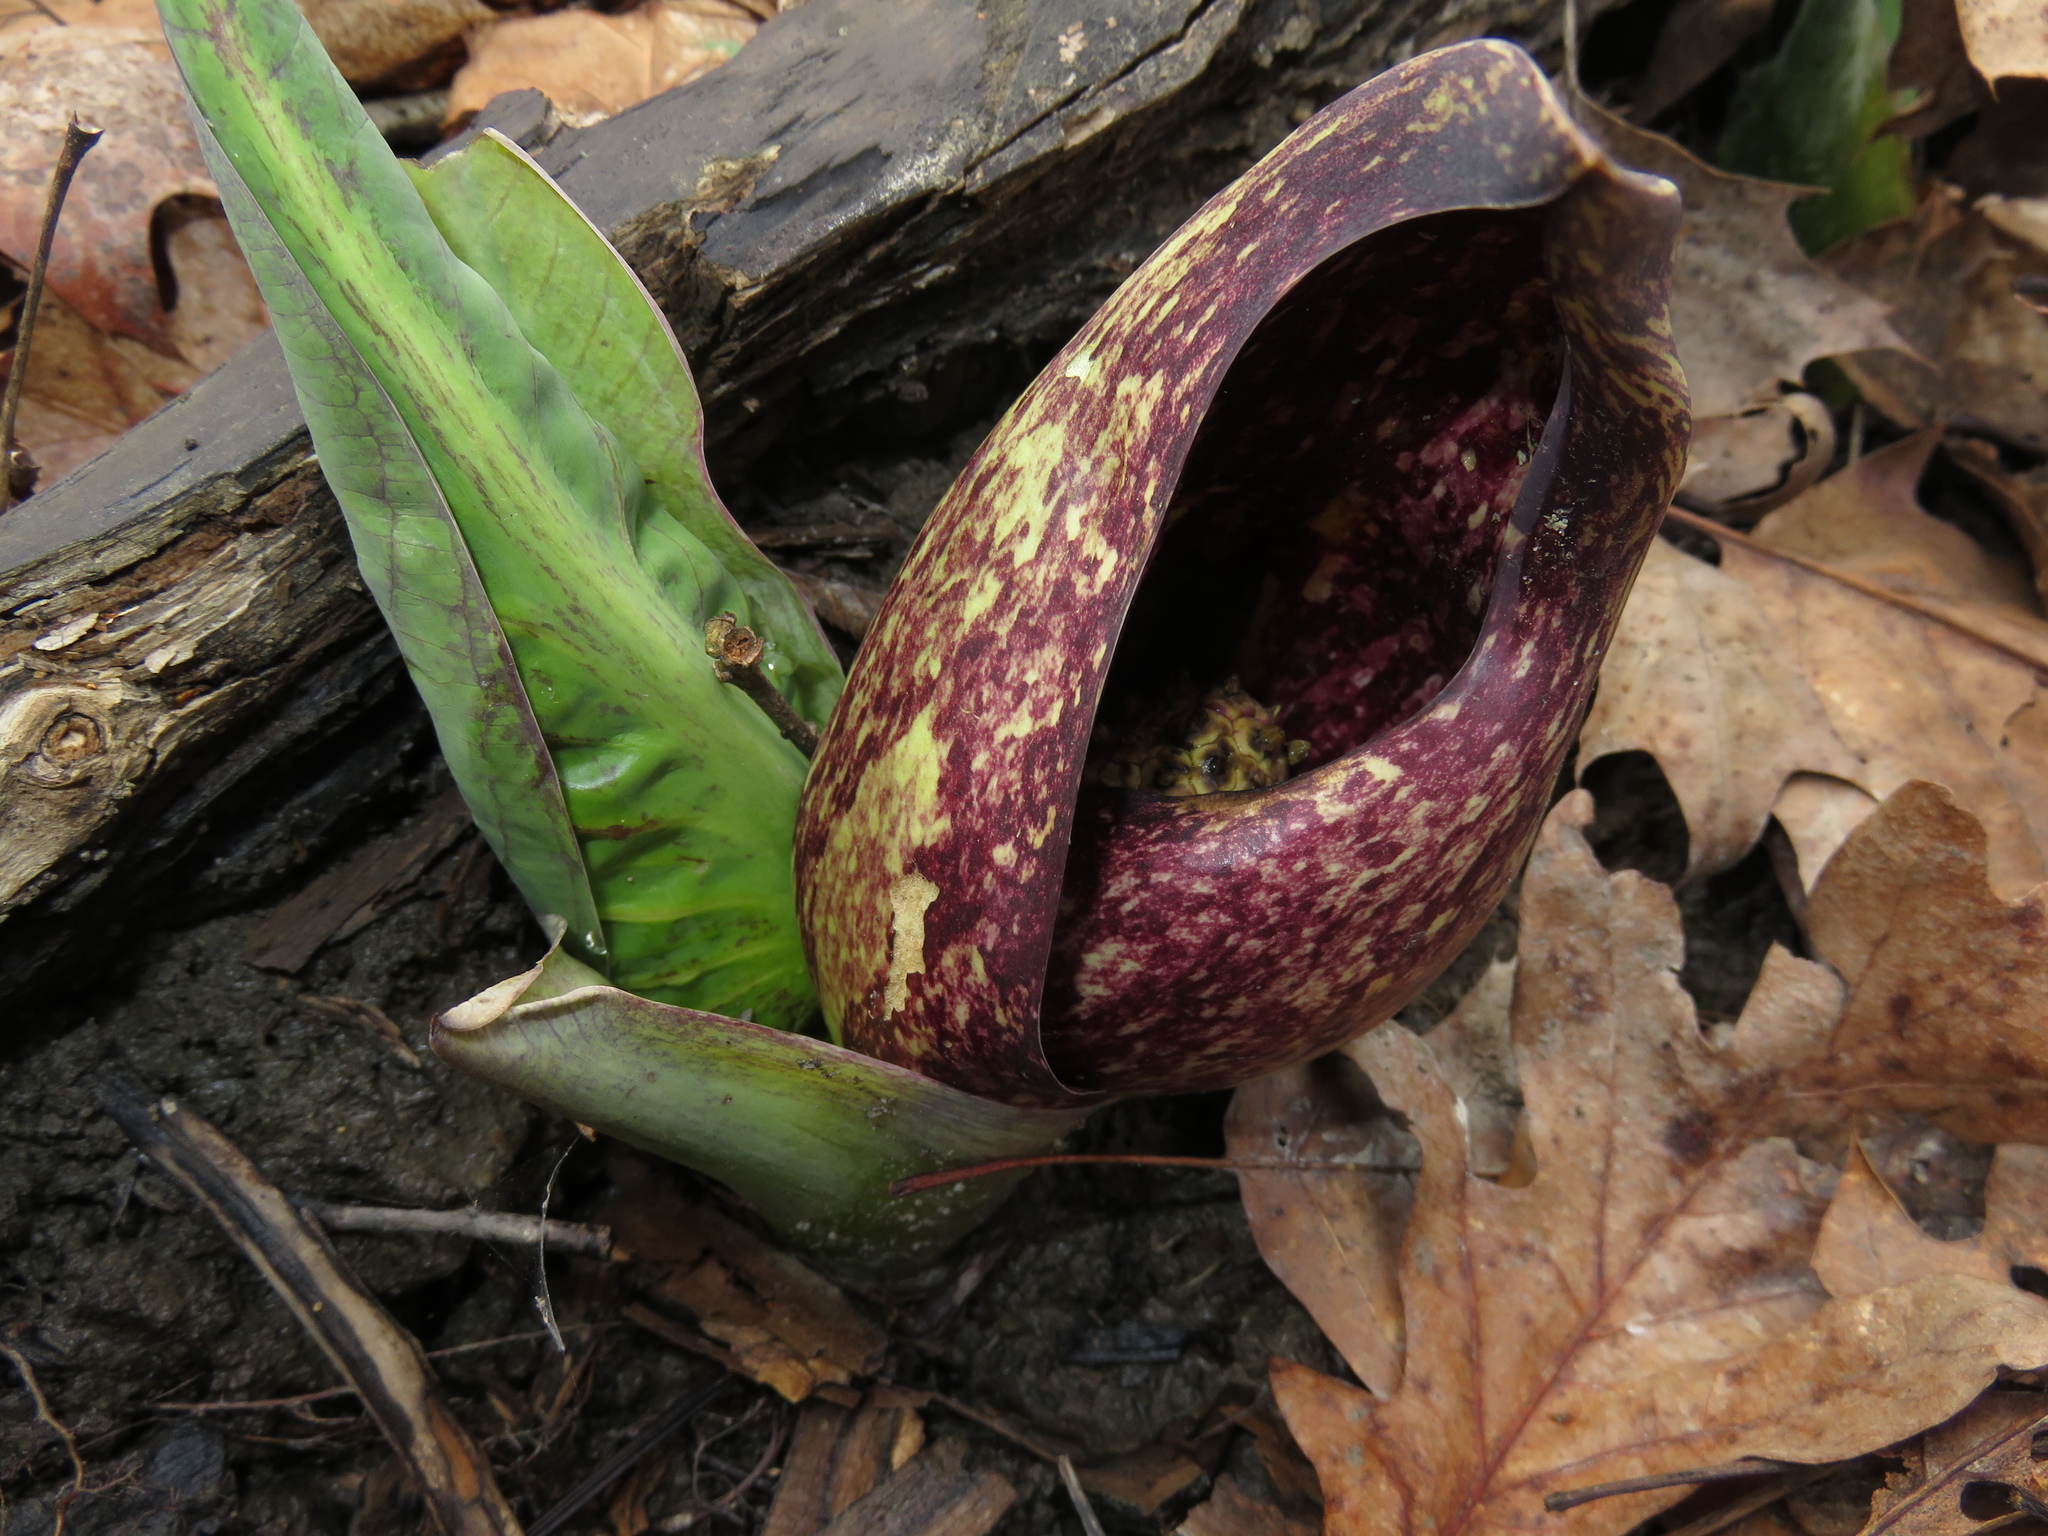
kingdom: Plantae
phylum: Tracheophyta
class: Liliopsida
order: Alismatales
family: Araceae
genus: Symplocarpus
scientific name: Symplocarpus foetidus
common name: Eastern skunk cabbage
